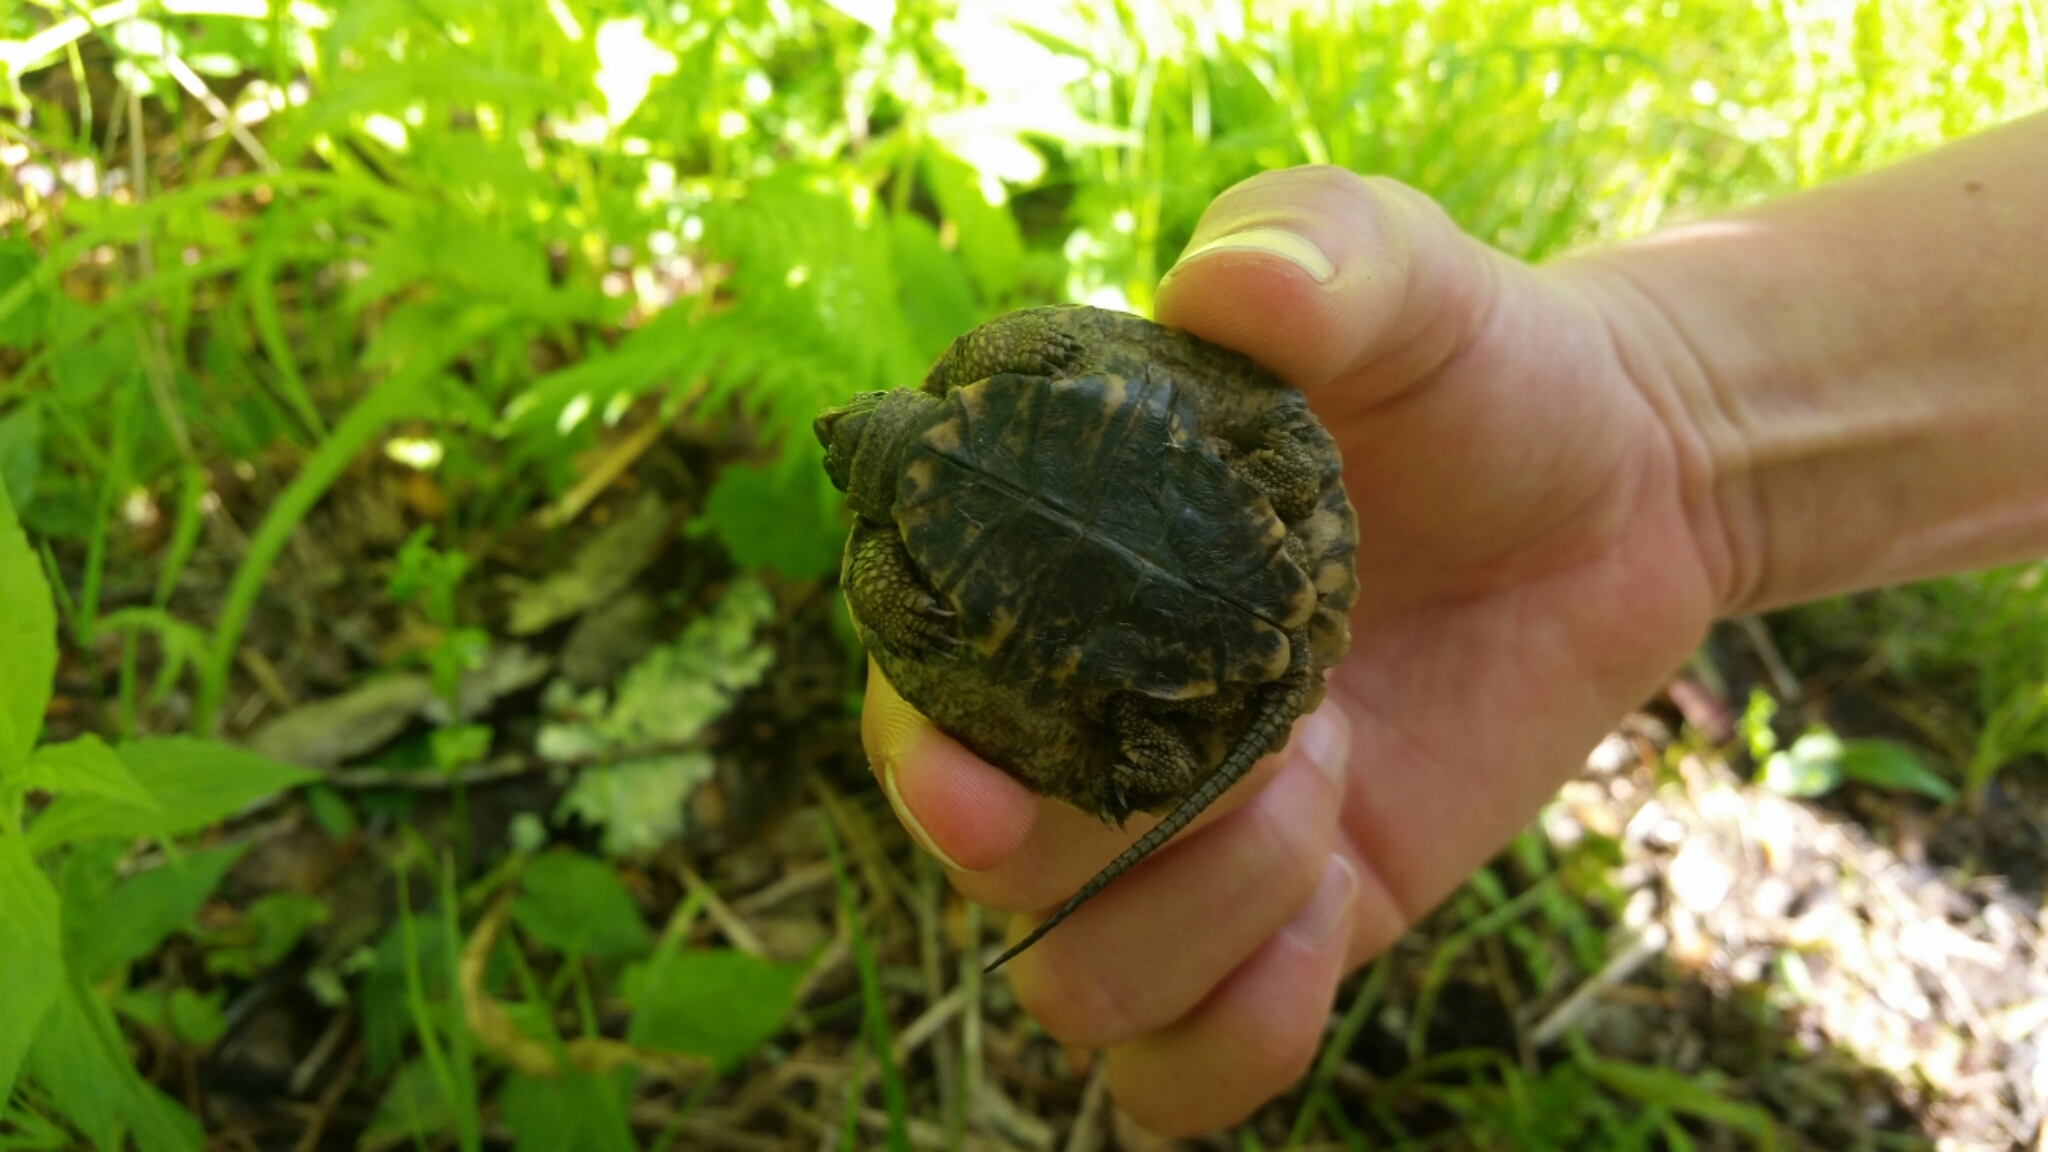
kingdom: Animalia
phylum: Chordata
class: Testudines
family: Emydidae
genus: Glyptemys
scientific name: Glyptemys insculpta
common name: Wood turtle
